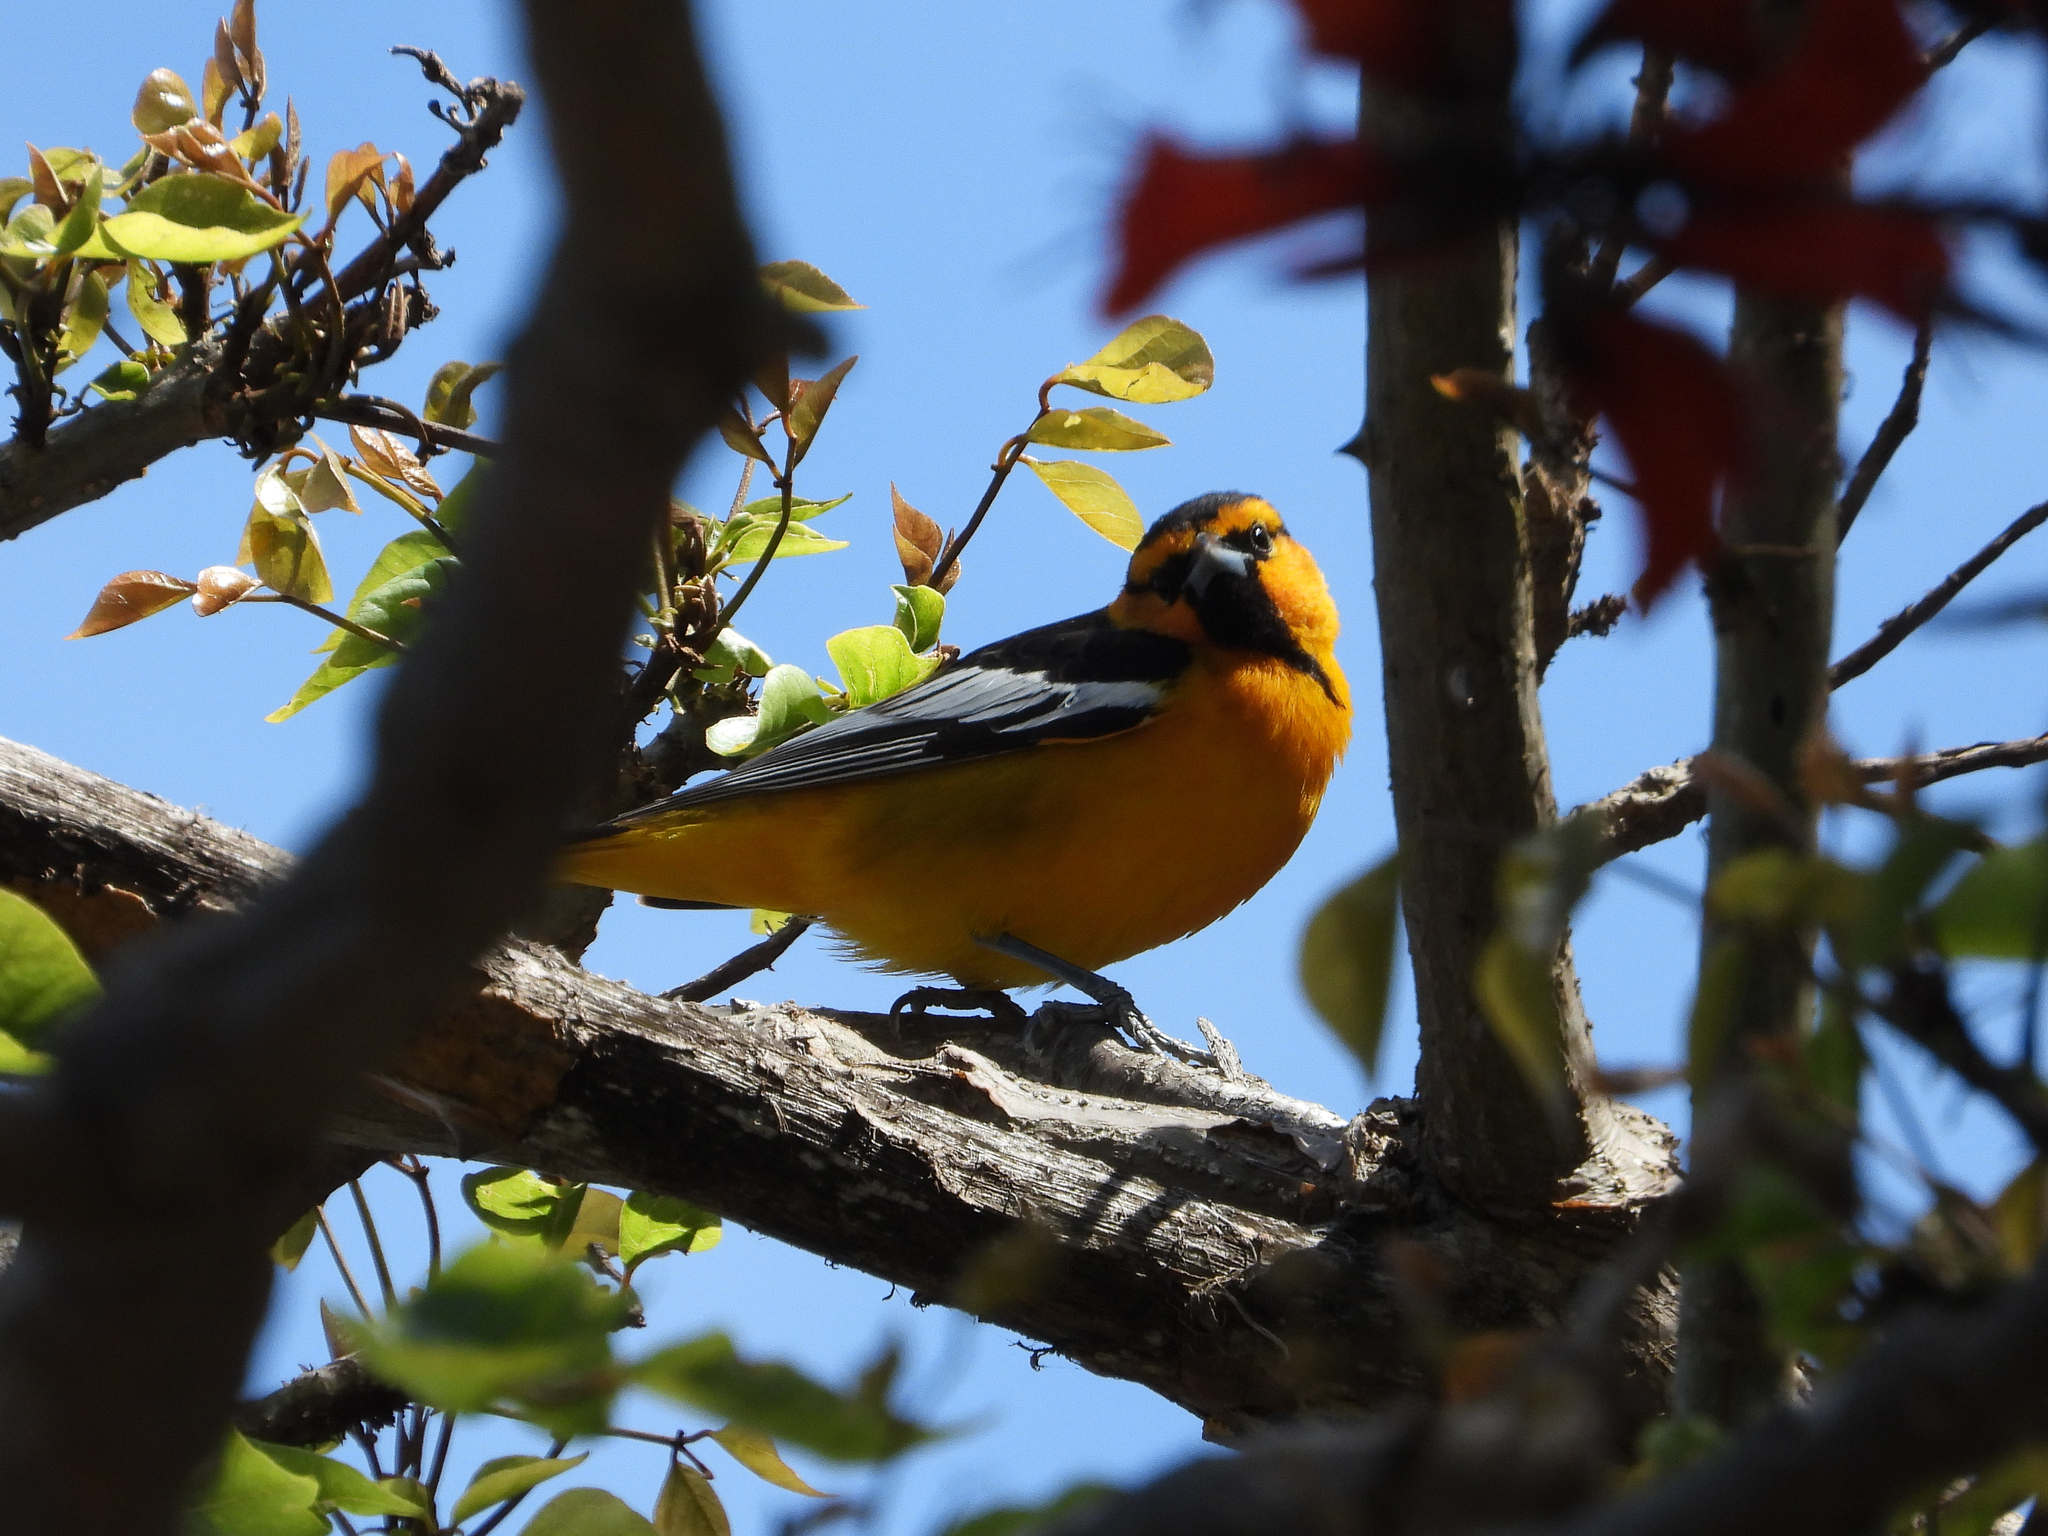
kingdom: Animalia
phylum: Chordata
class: Aves
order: Passeriformes
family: Icteridae
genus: Icterus
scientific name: Icterus bullockii
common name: Bullock's oriole
